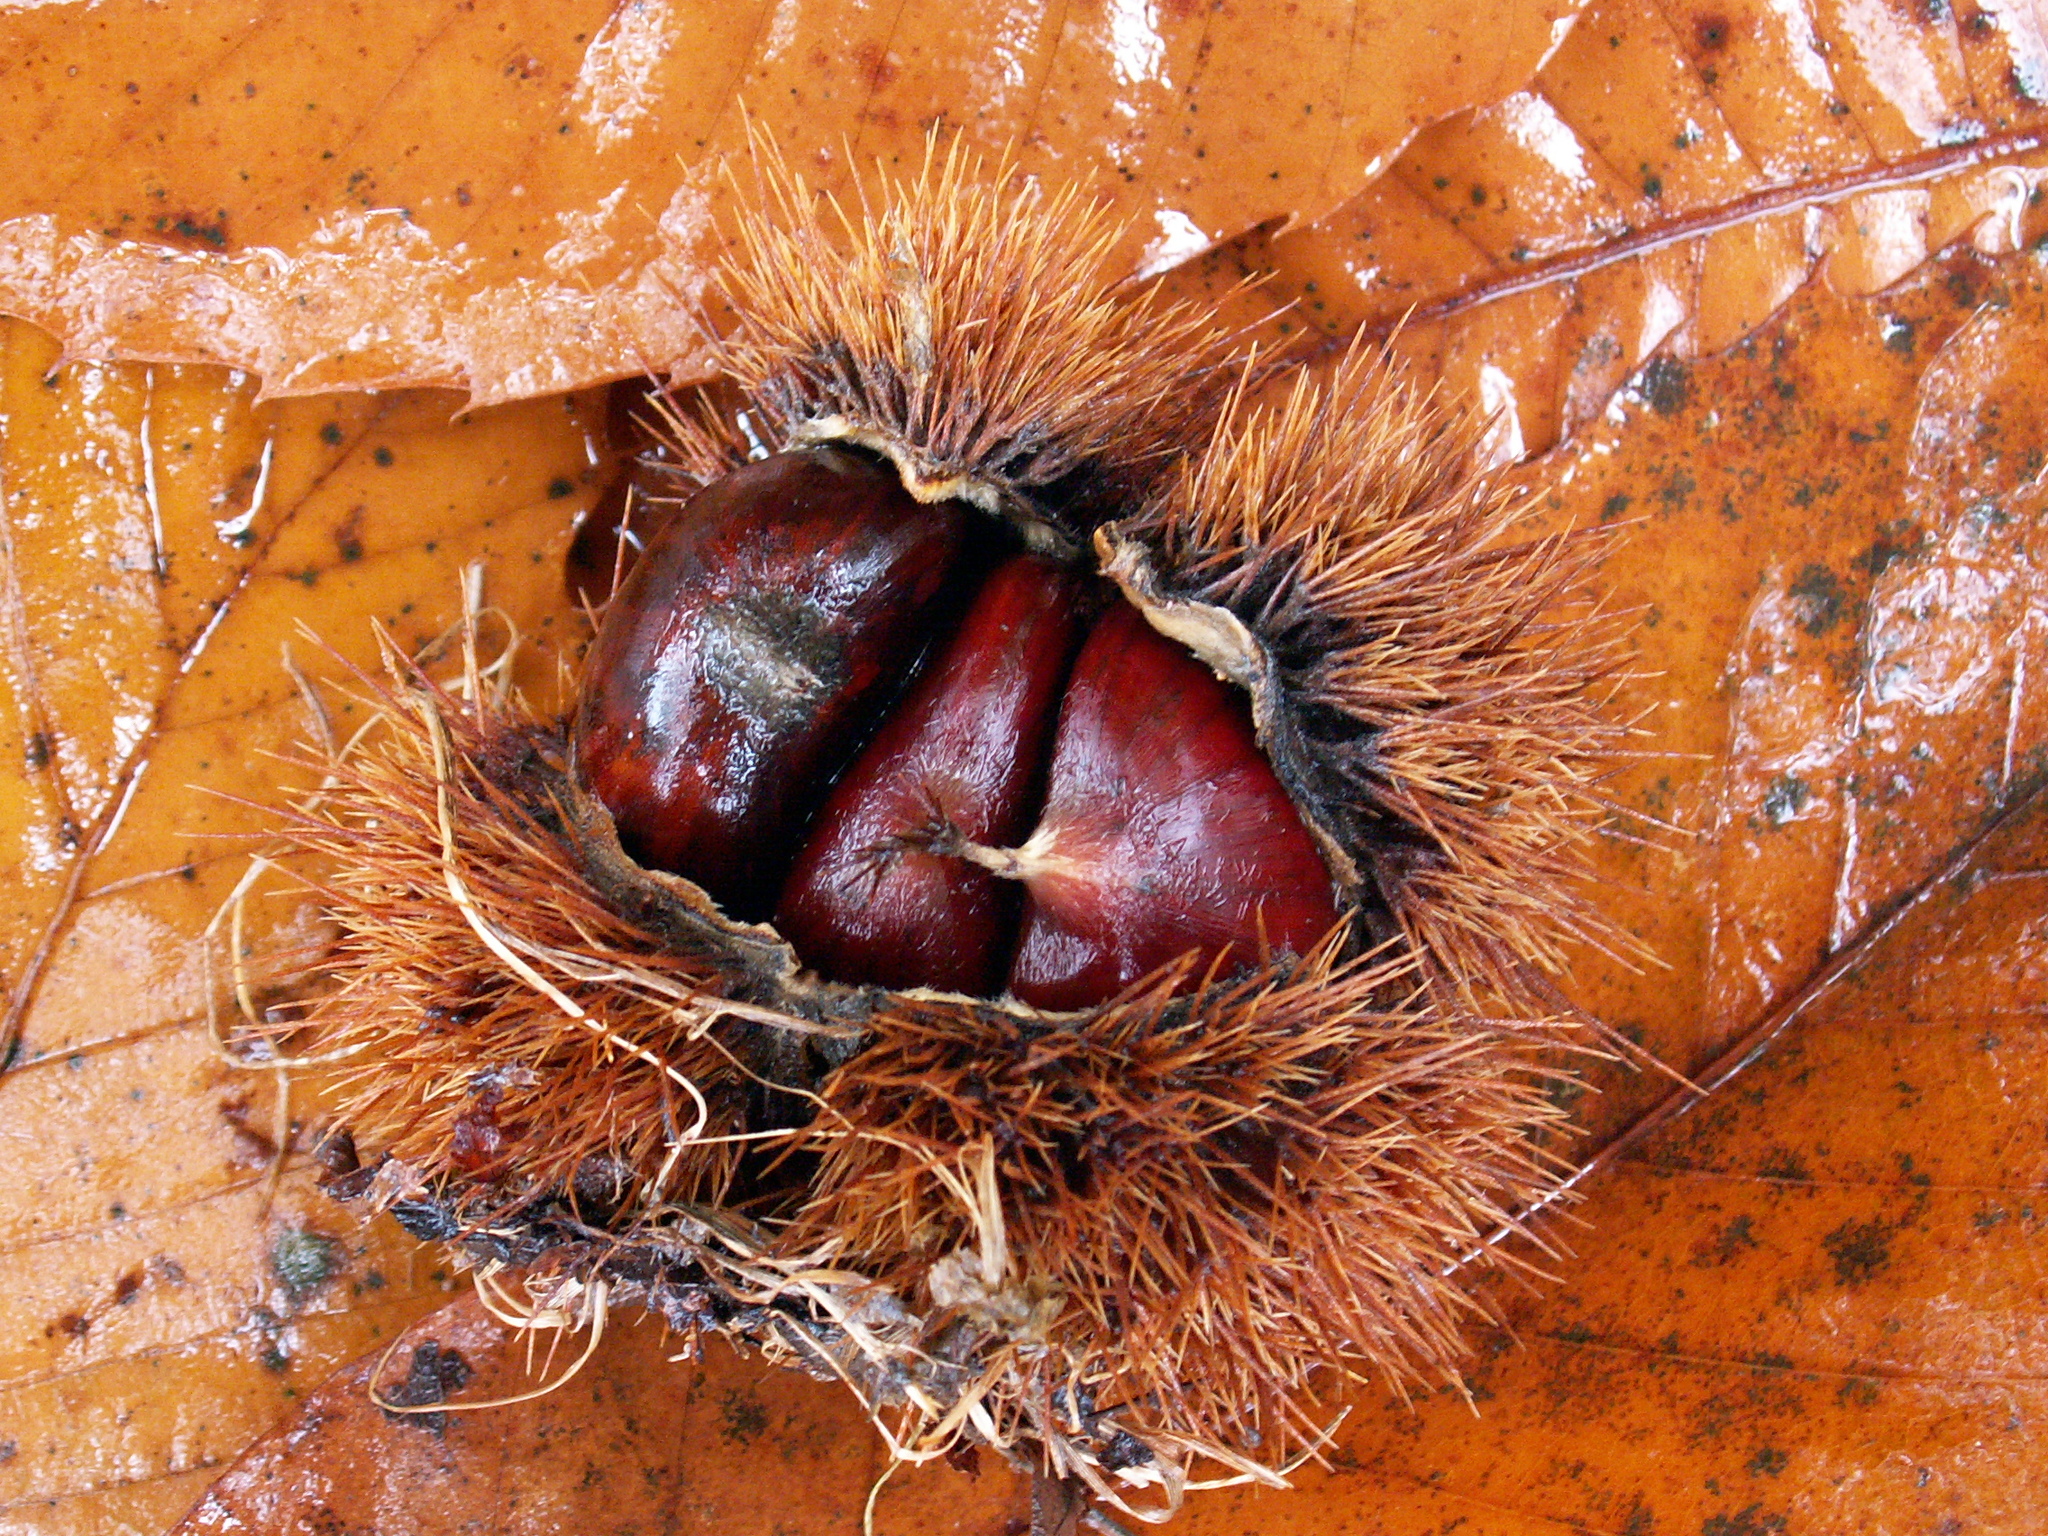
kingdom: Plantae
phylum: Tracheophyta
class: Magnoliopsida
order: Fagales
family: Fagaceae
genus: Castanea
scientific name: Castanea sativa
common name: Sweet chestnut
